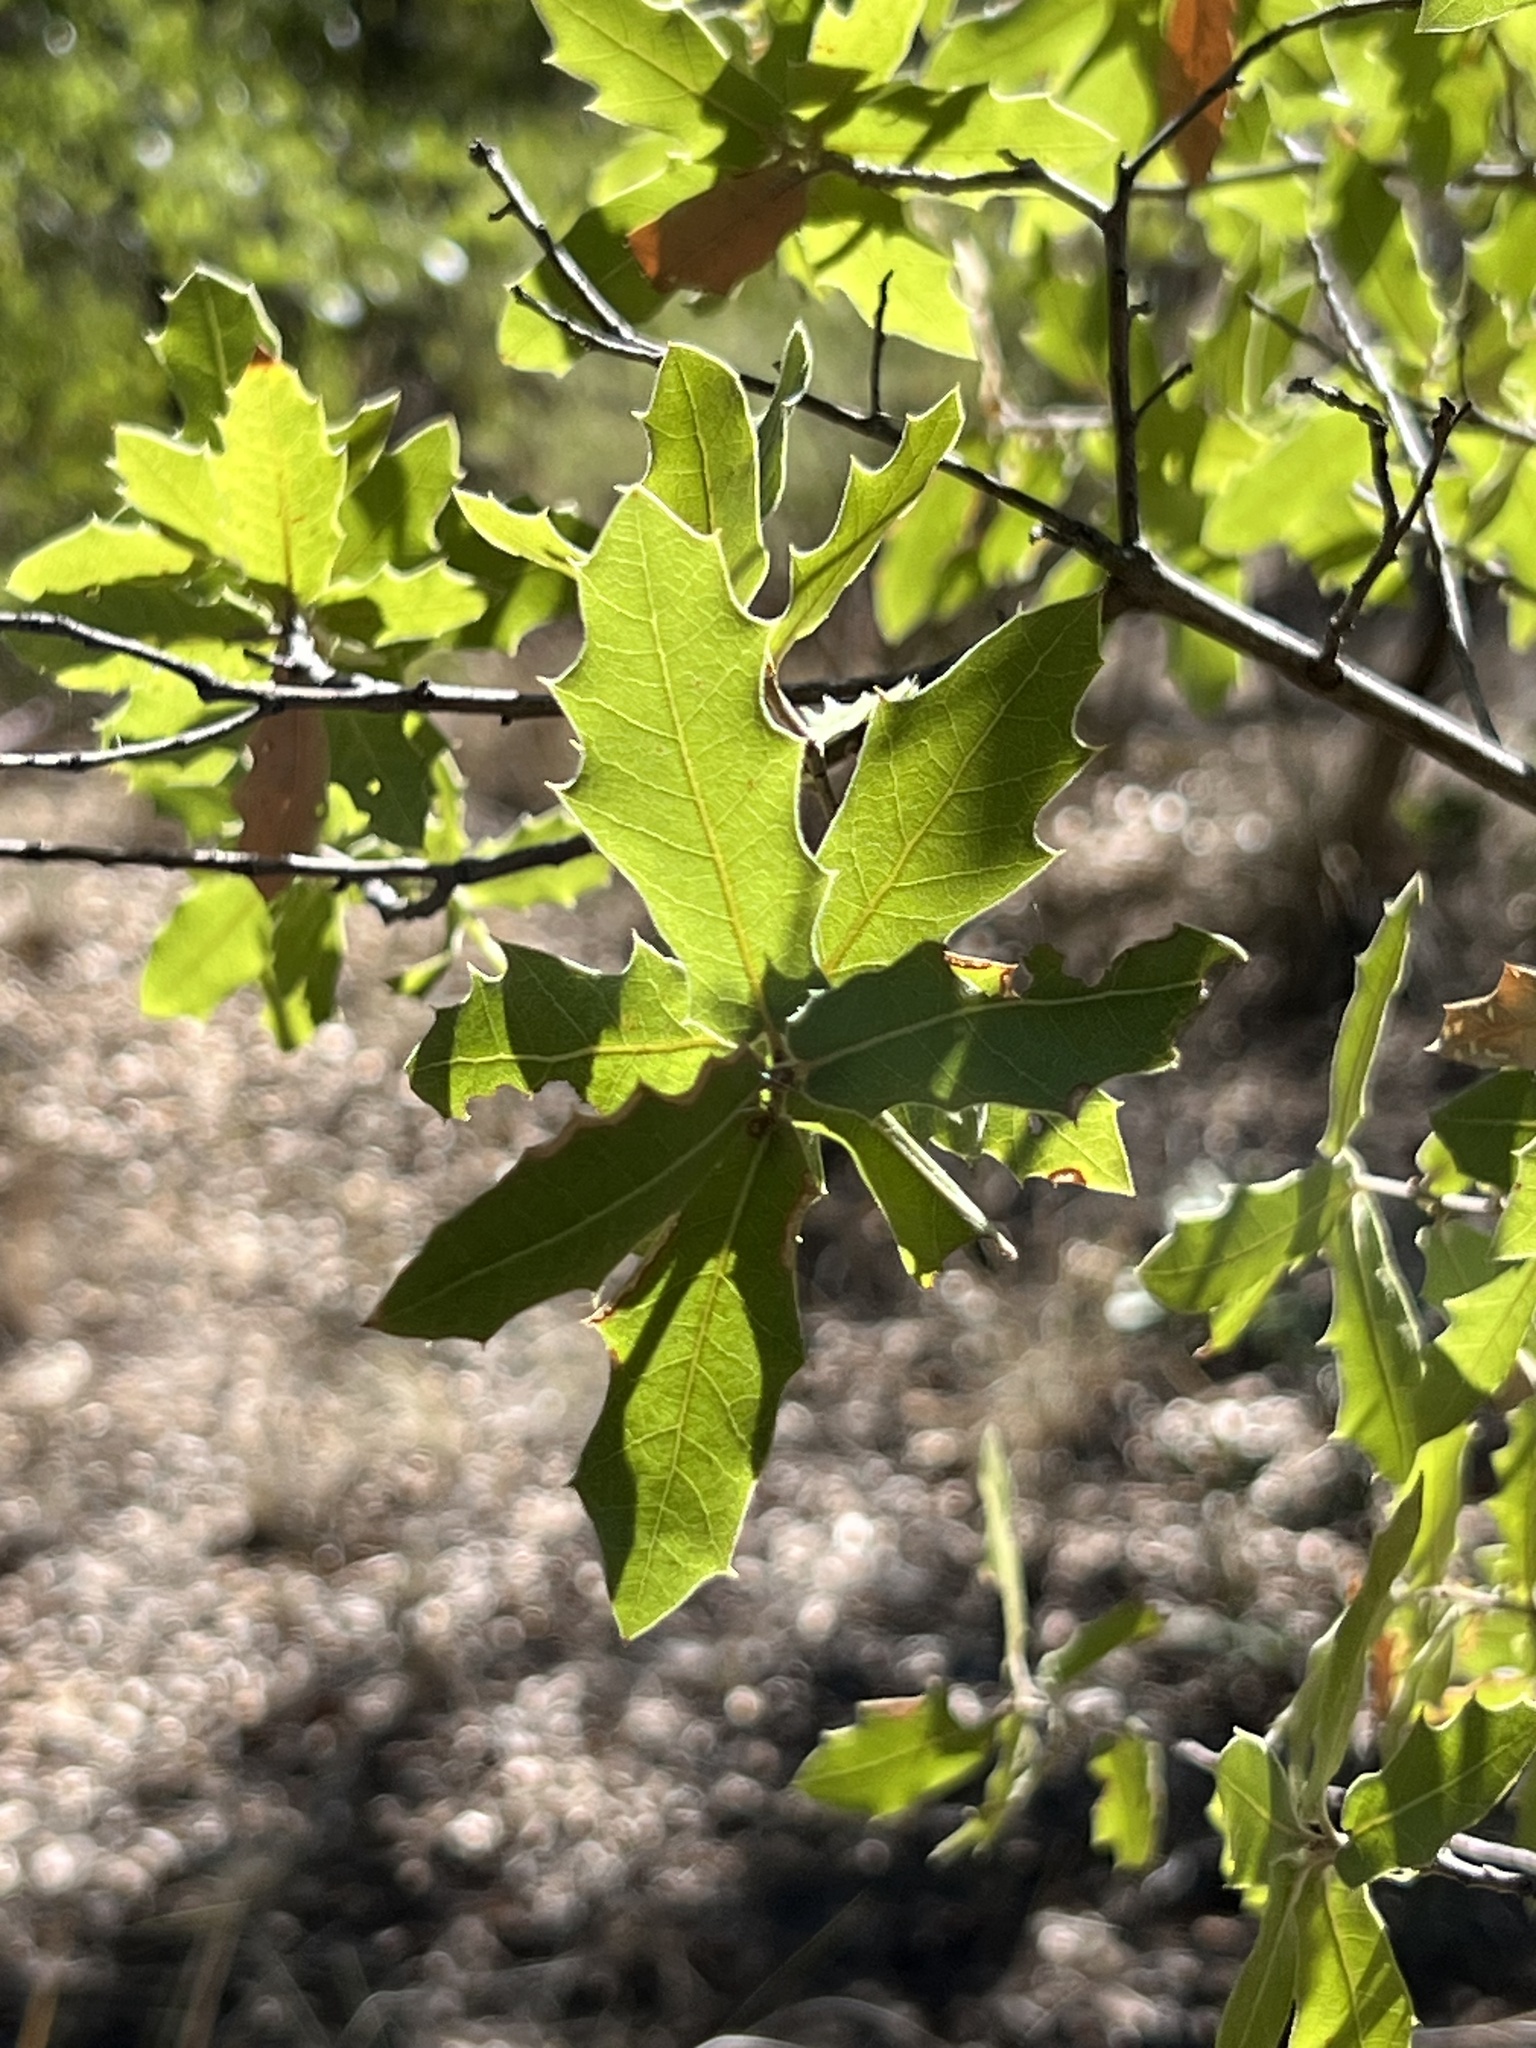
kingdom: Plantae
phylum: Tracheophyta
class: Magnoliopsida
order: Fagales
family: Fagaceae
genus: Quercus
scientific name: Quercus emoryi
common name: Emory oak
